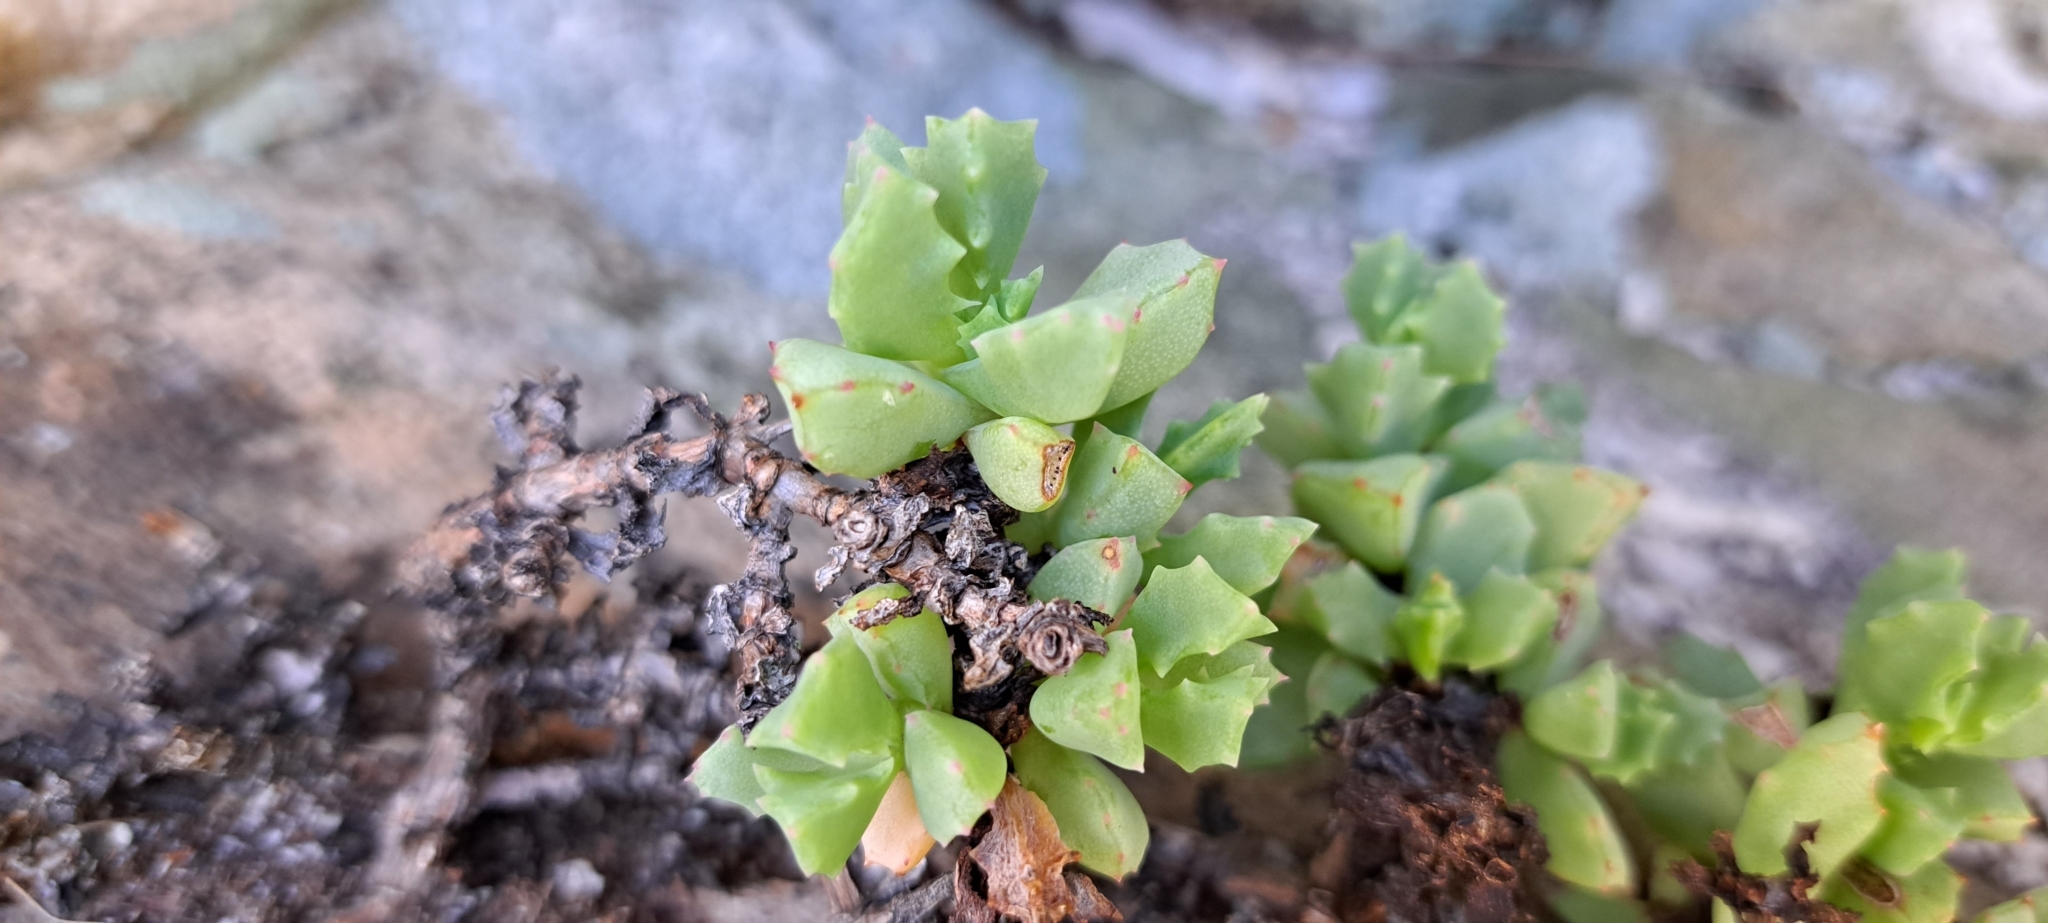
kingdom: Plantae
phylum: Tracheophyta
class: Magnoliopsida
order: Caryophyllales
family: Aizoaceae
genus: Oscularia
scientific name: Oscularia deltoides
